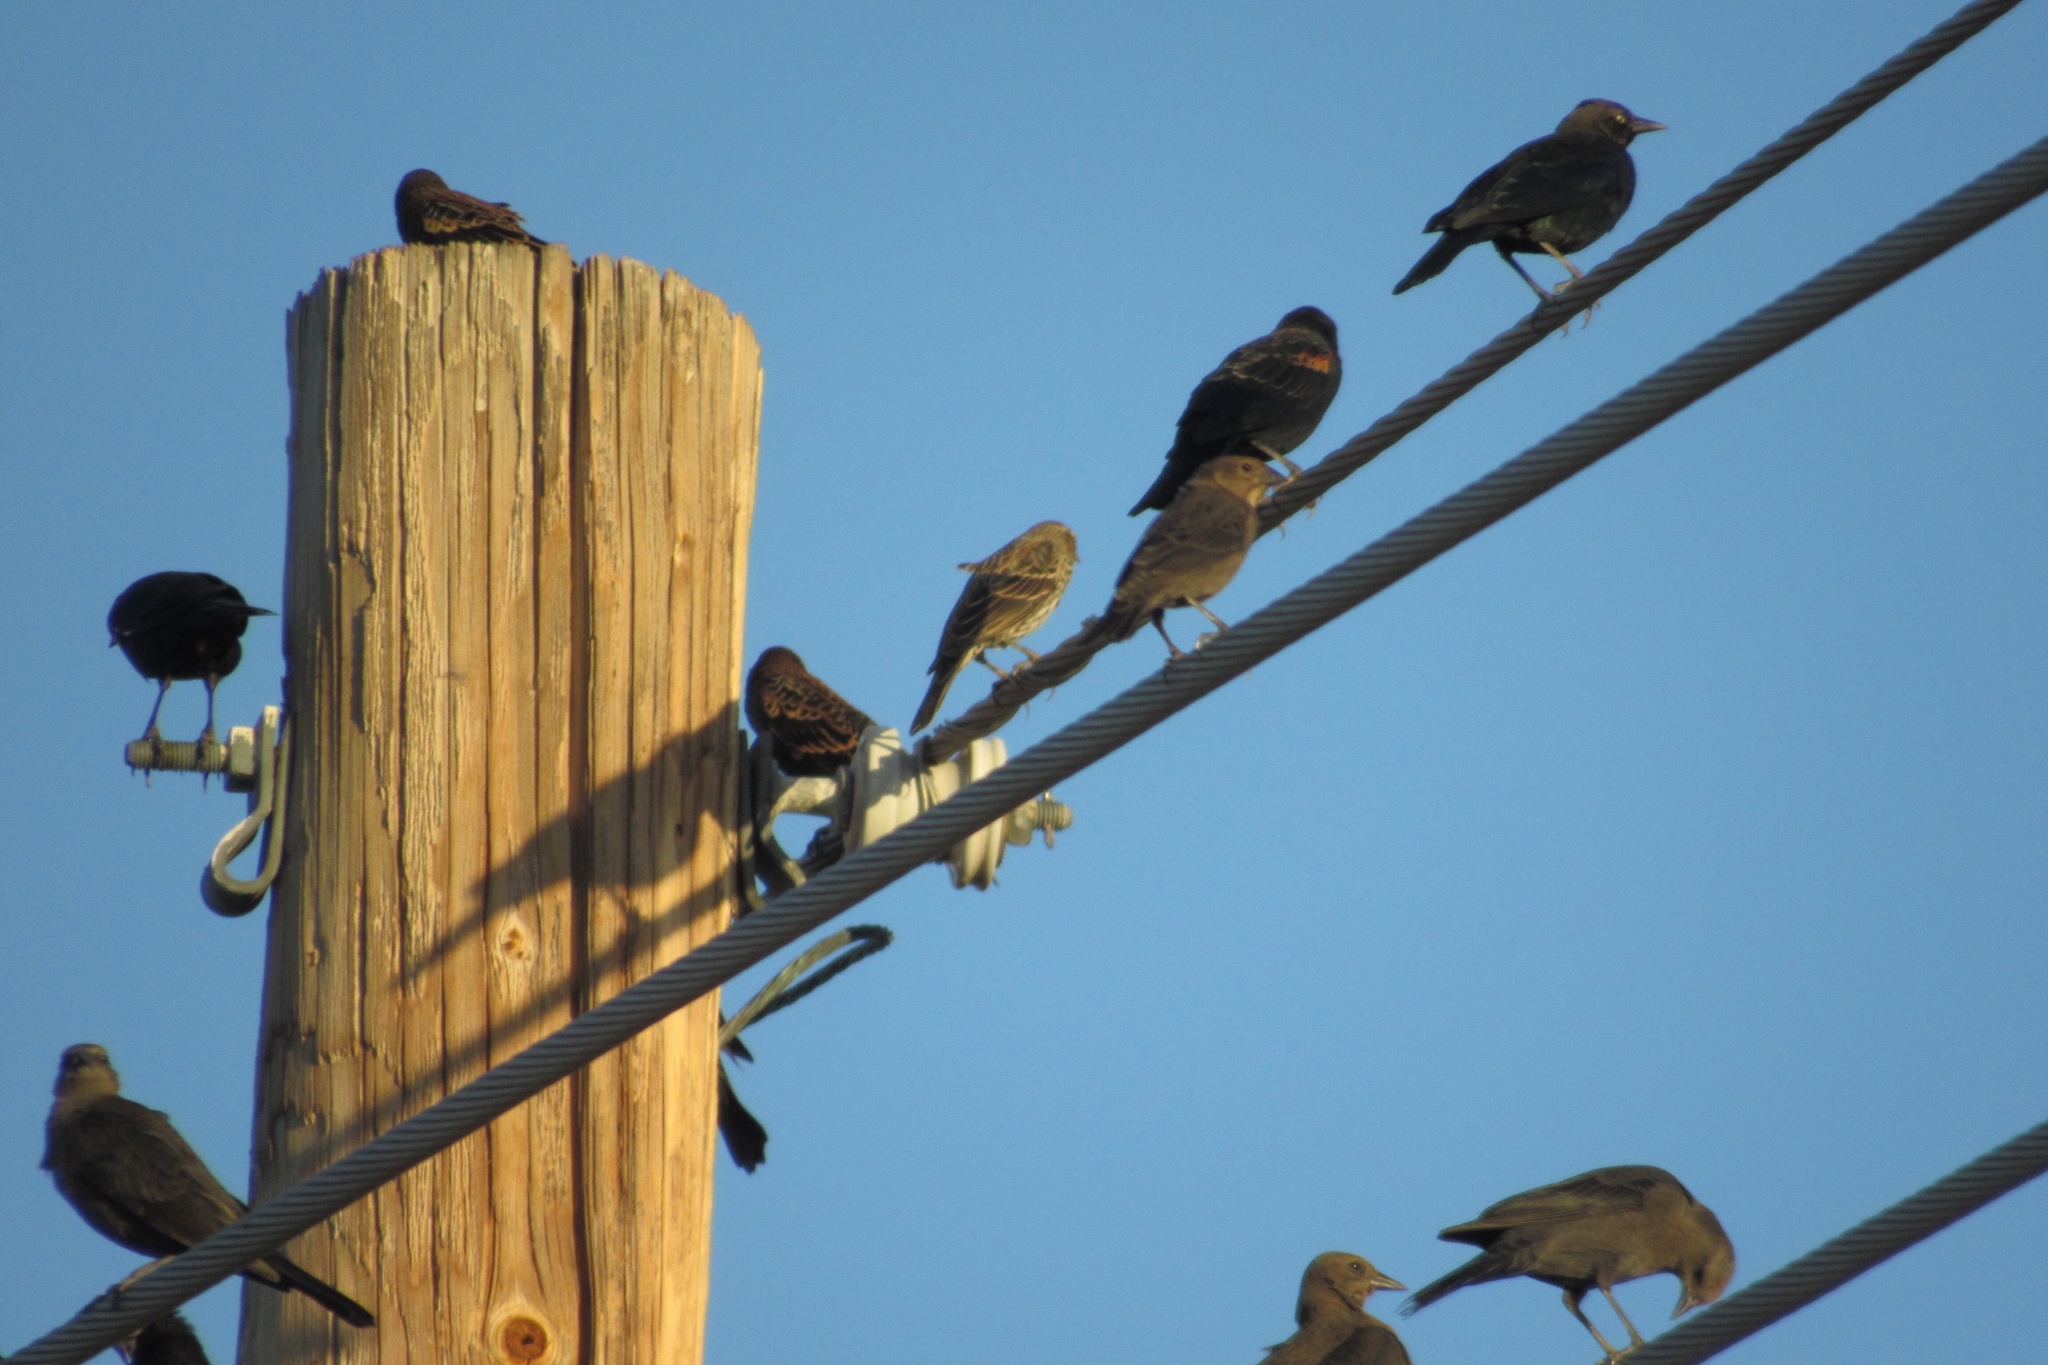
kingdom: Animalia
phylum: Chordata
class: Aves
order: Passeriformes
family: Icteridae
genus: Agelaius
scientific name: Agelaius phoeniceus
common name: Red-winged blackbird
